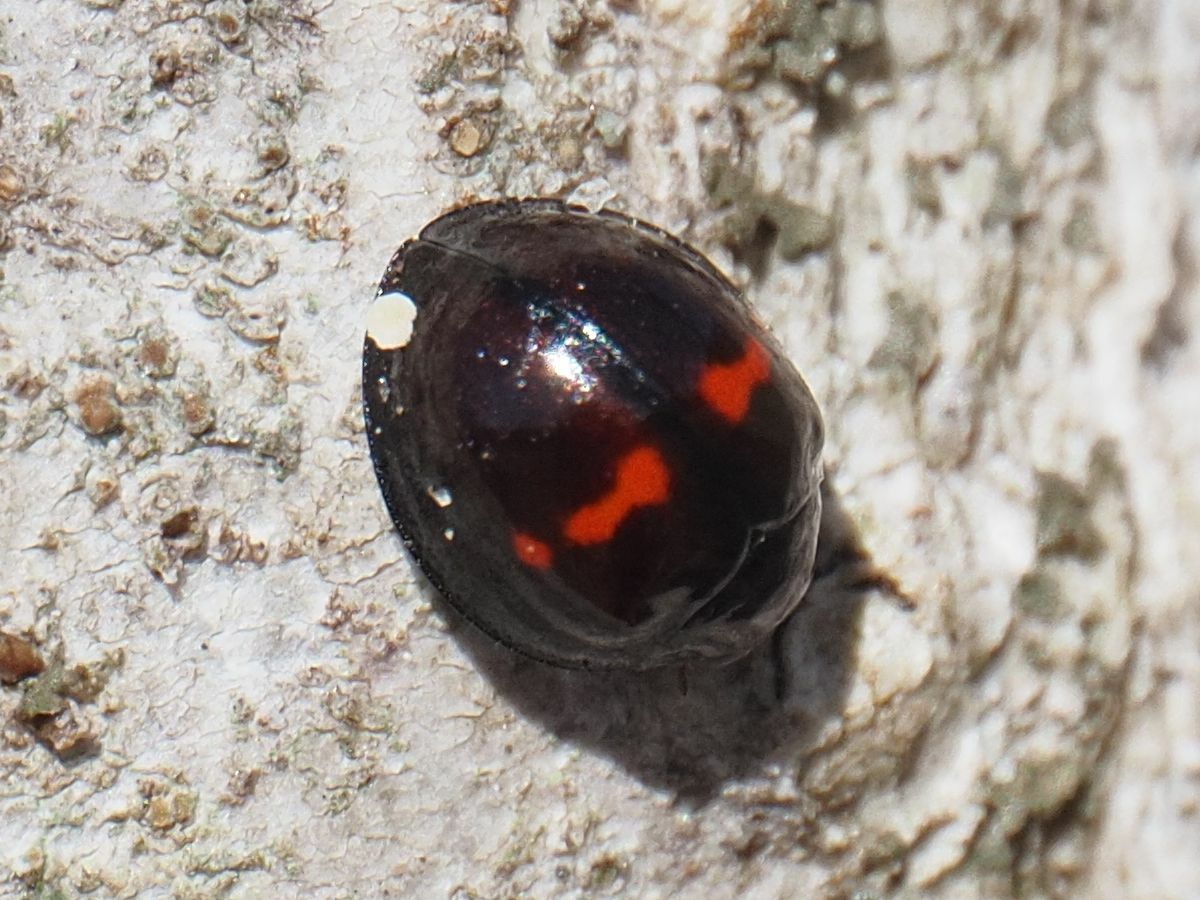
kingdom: Animalia
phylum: Arthropoda
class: Insecta
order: Coleoptera
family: Coccinellidae
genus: Chilocorus
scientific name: Chilocorus bipustulatus
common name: Heather ladybird
